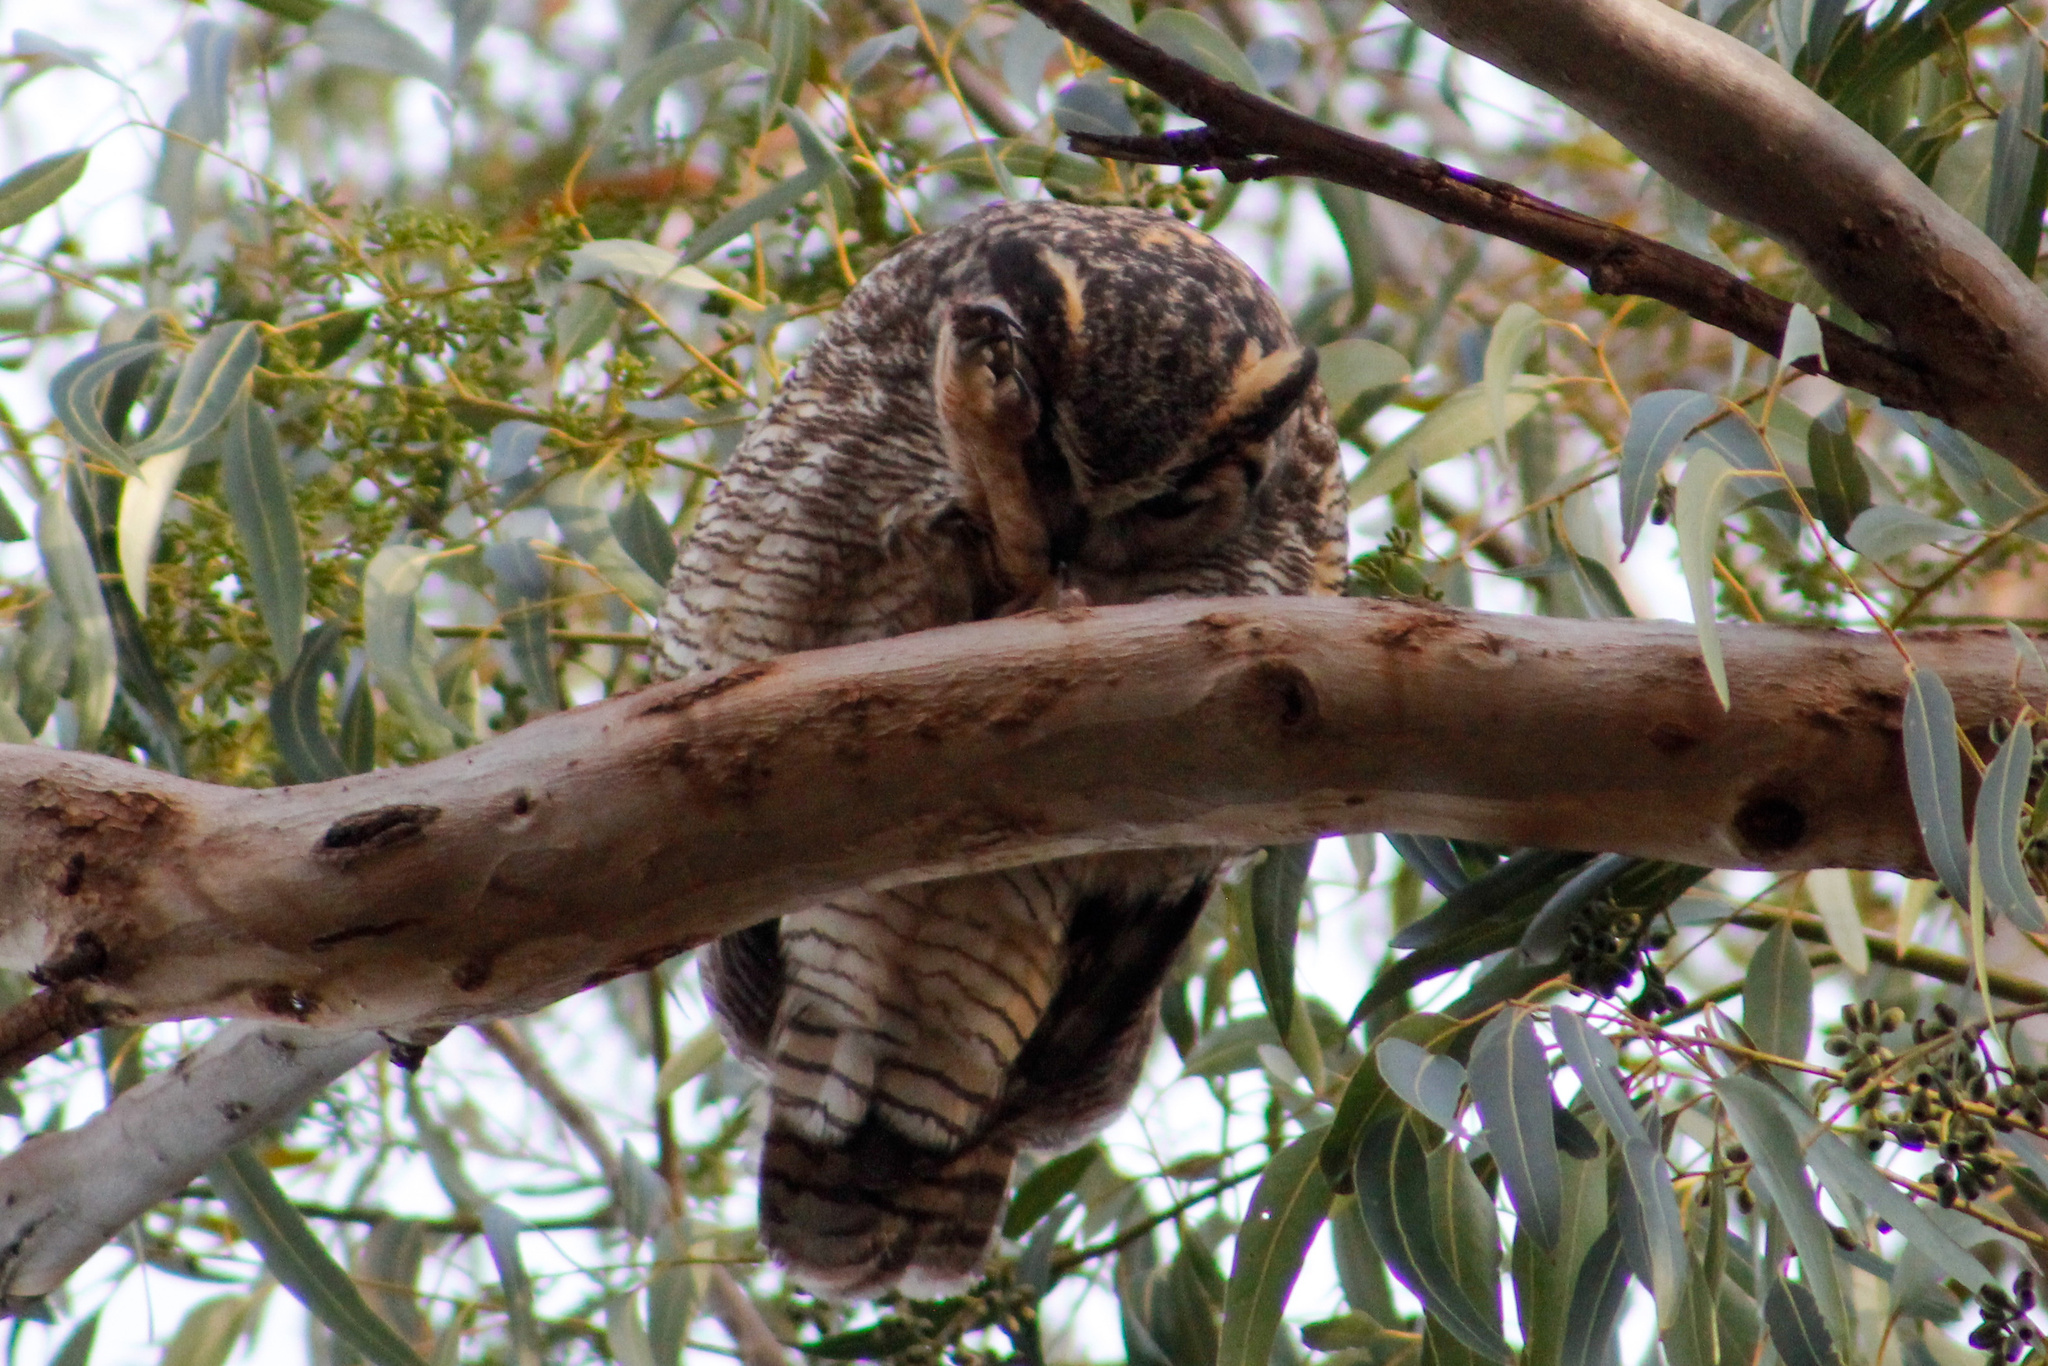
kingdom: Animalia
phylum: Chordata
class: Aves
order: Strigiformes
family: Strigidae
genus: Bubo
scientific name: Bubo virginianus
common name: Great horned owl
